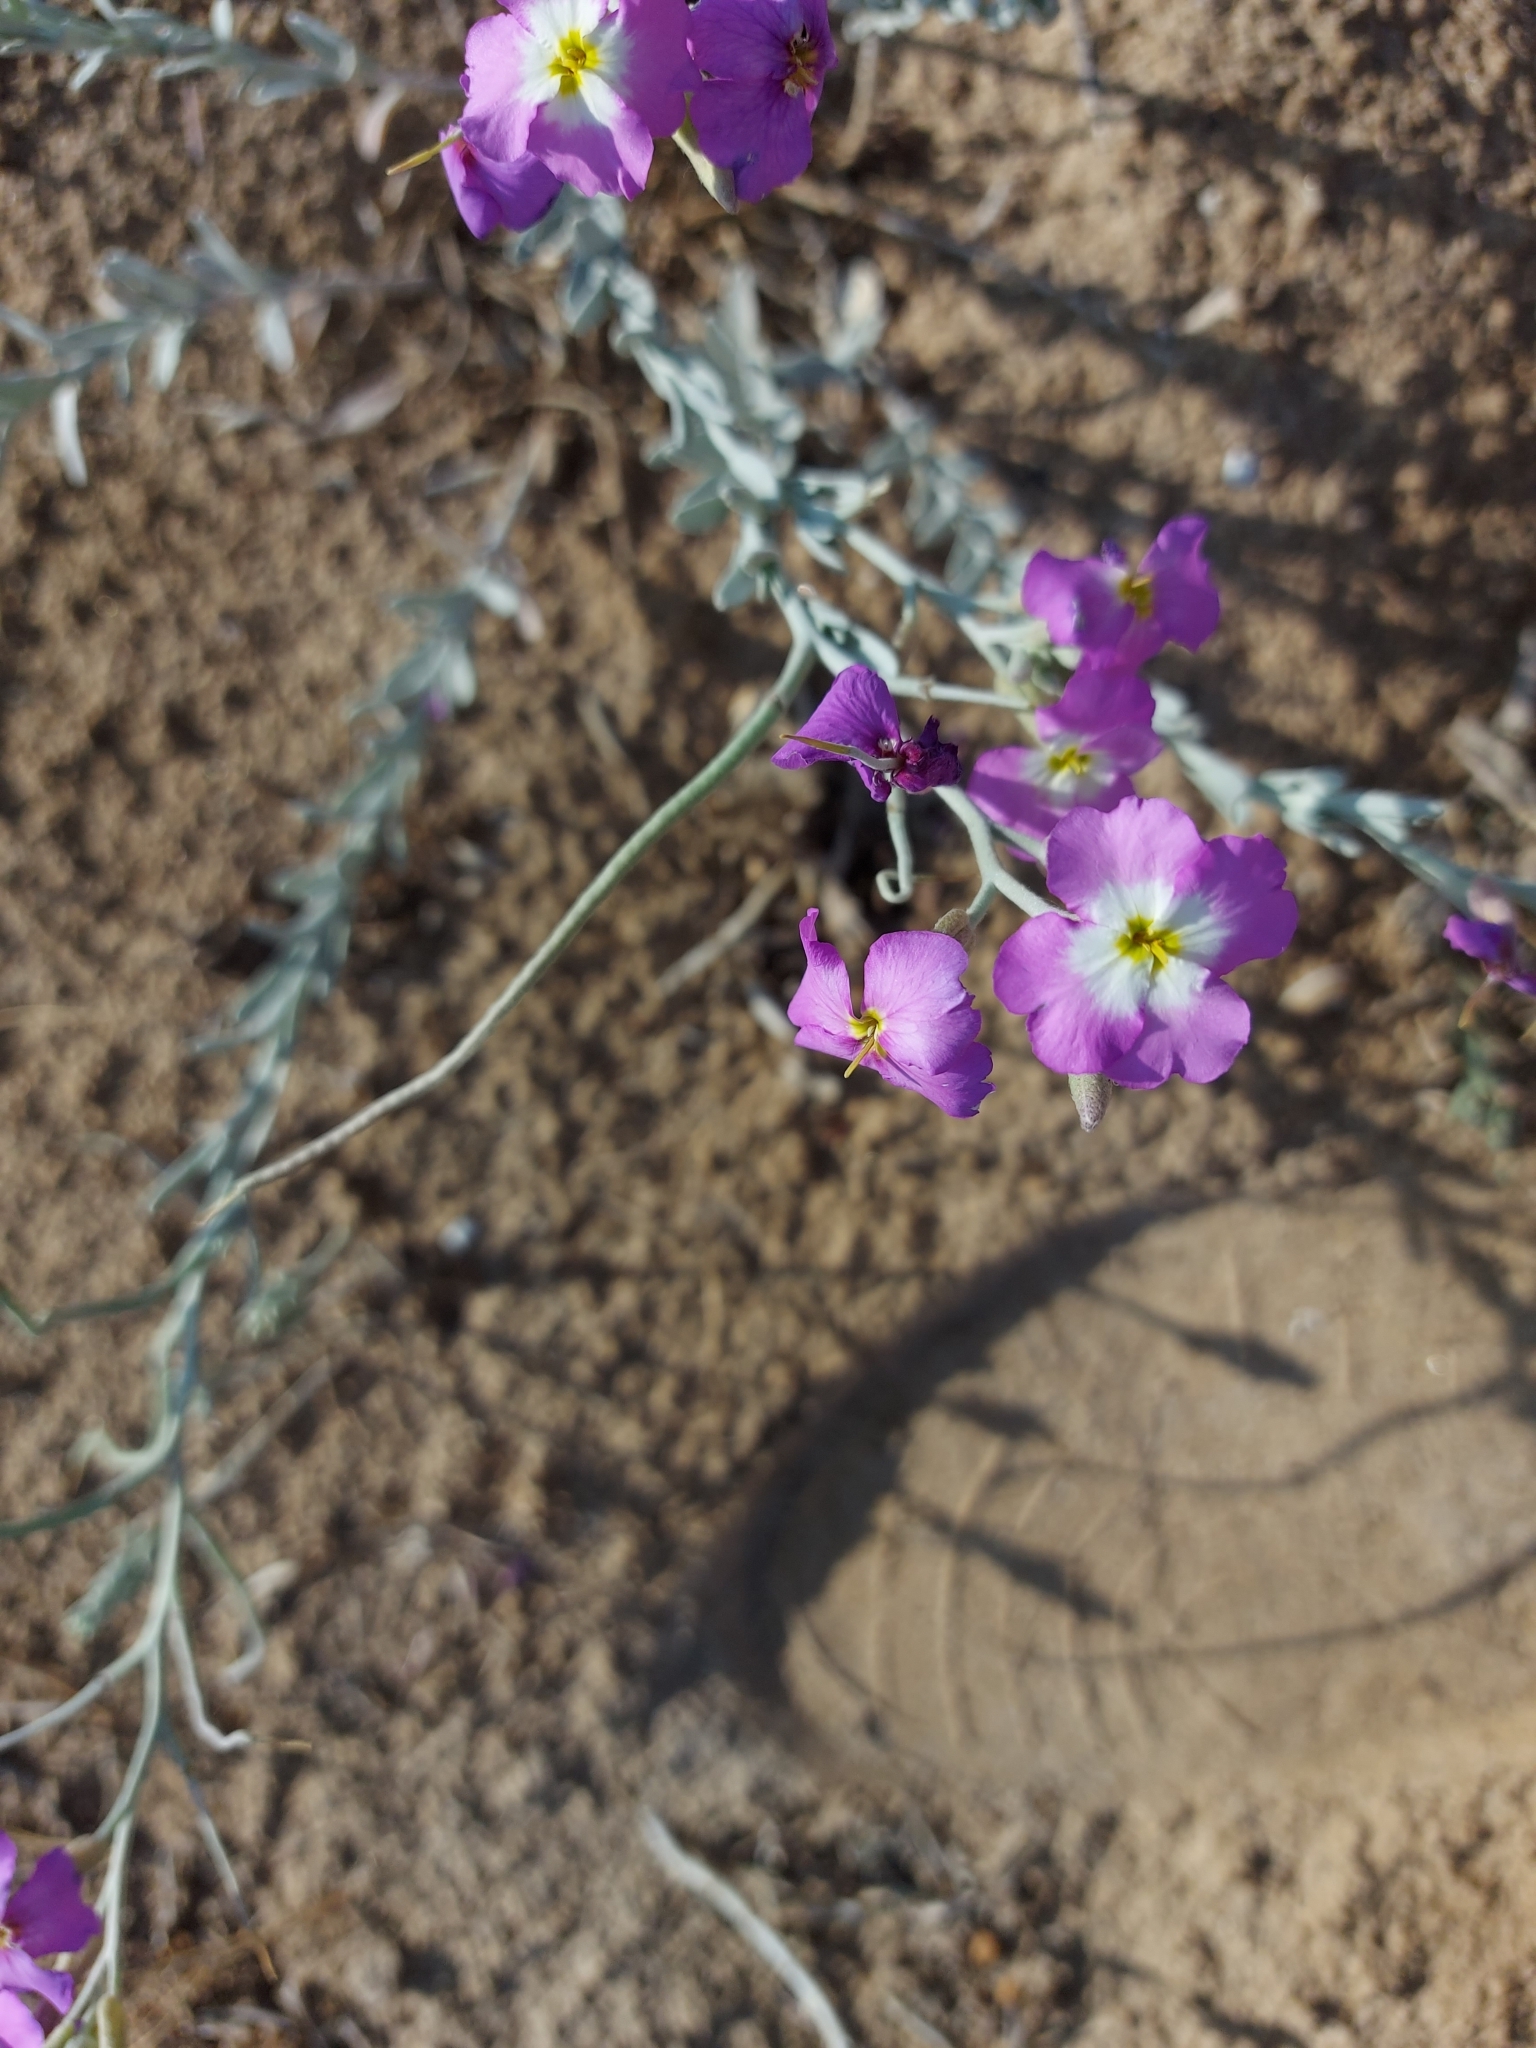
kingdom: Plantae
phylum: Tracheophyta
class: Magnoliopsida
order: Brassicales
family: Brassicaceae
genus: Marcuskochia
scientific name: Marcuskochia littorea
